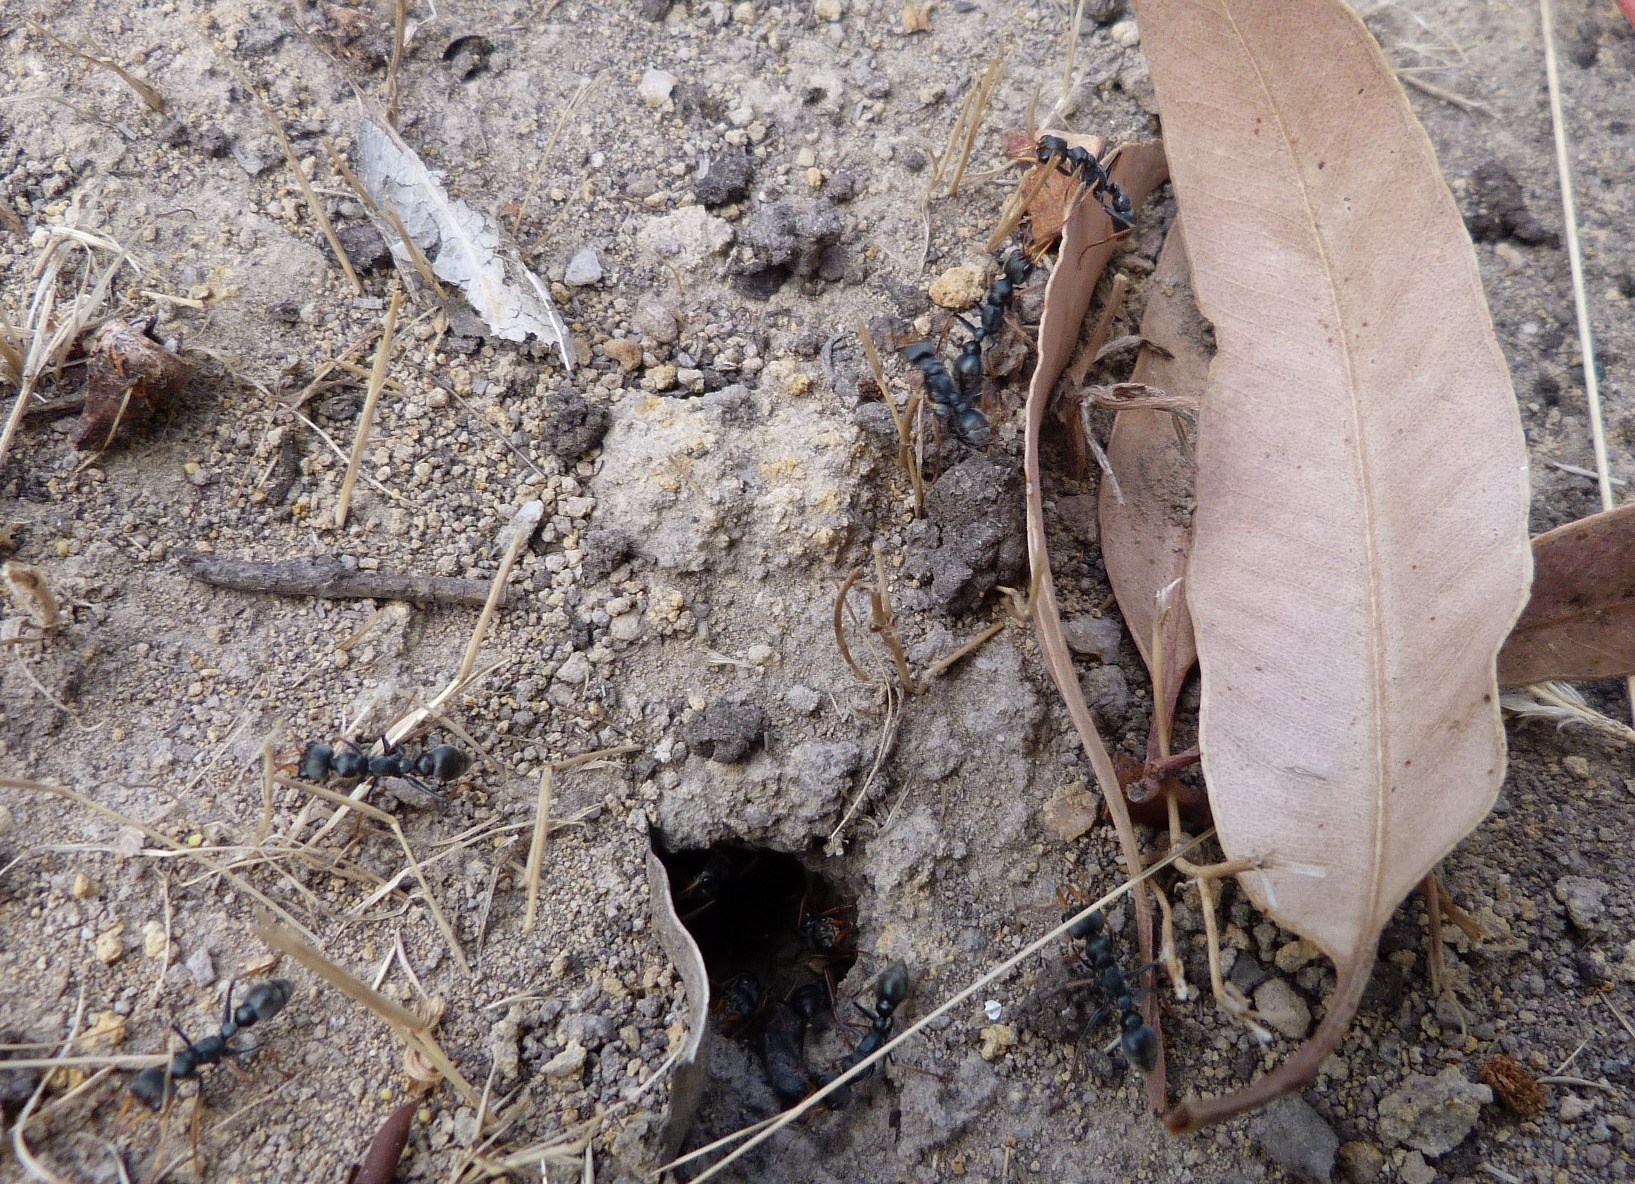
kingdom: Animalia
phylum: Arthropoda
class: Insecta
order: Hymenoptera
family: Formicidae
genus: Myrmecia
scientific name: Myrmecia pilosula
